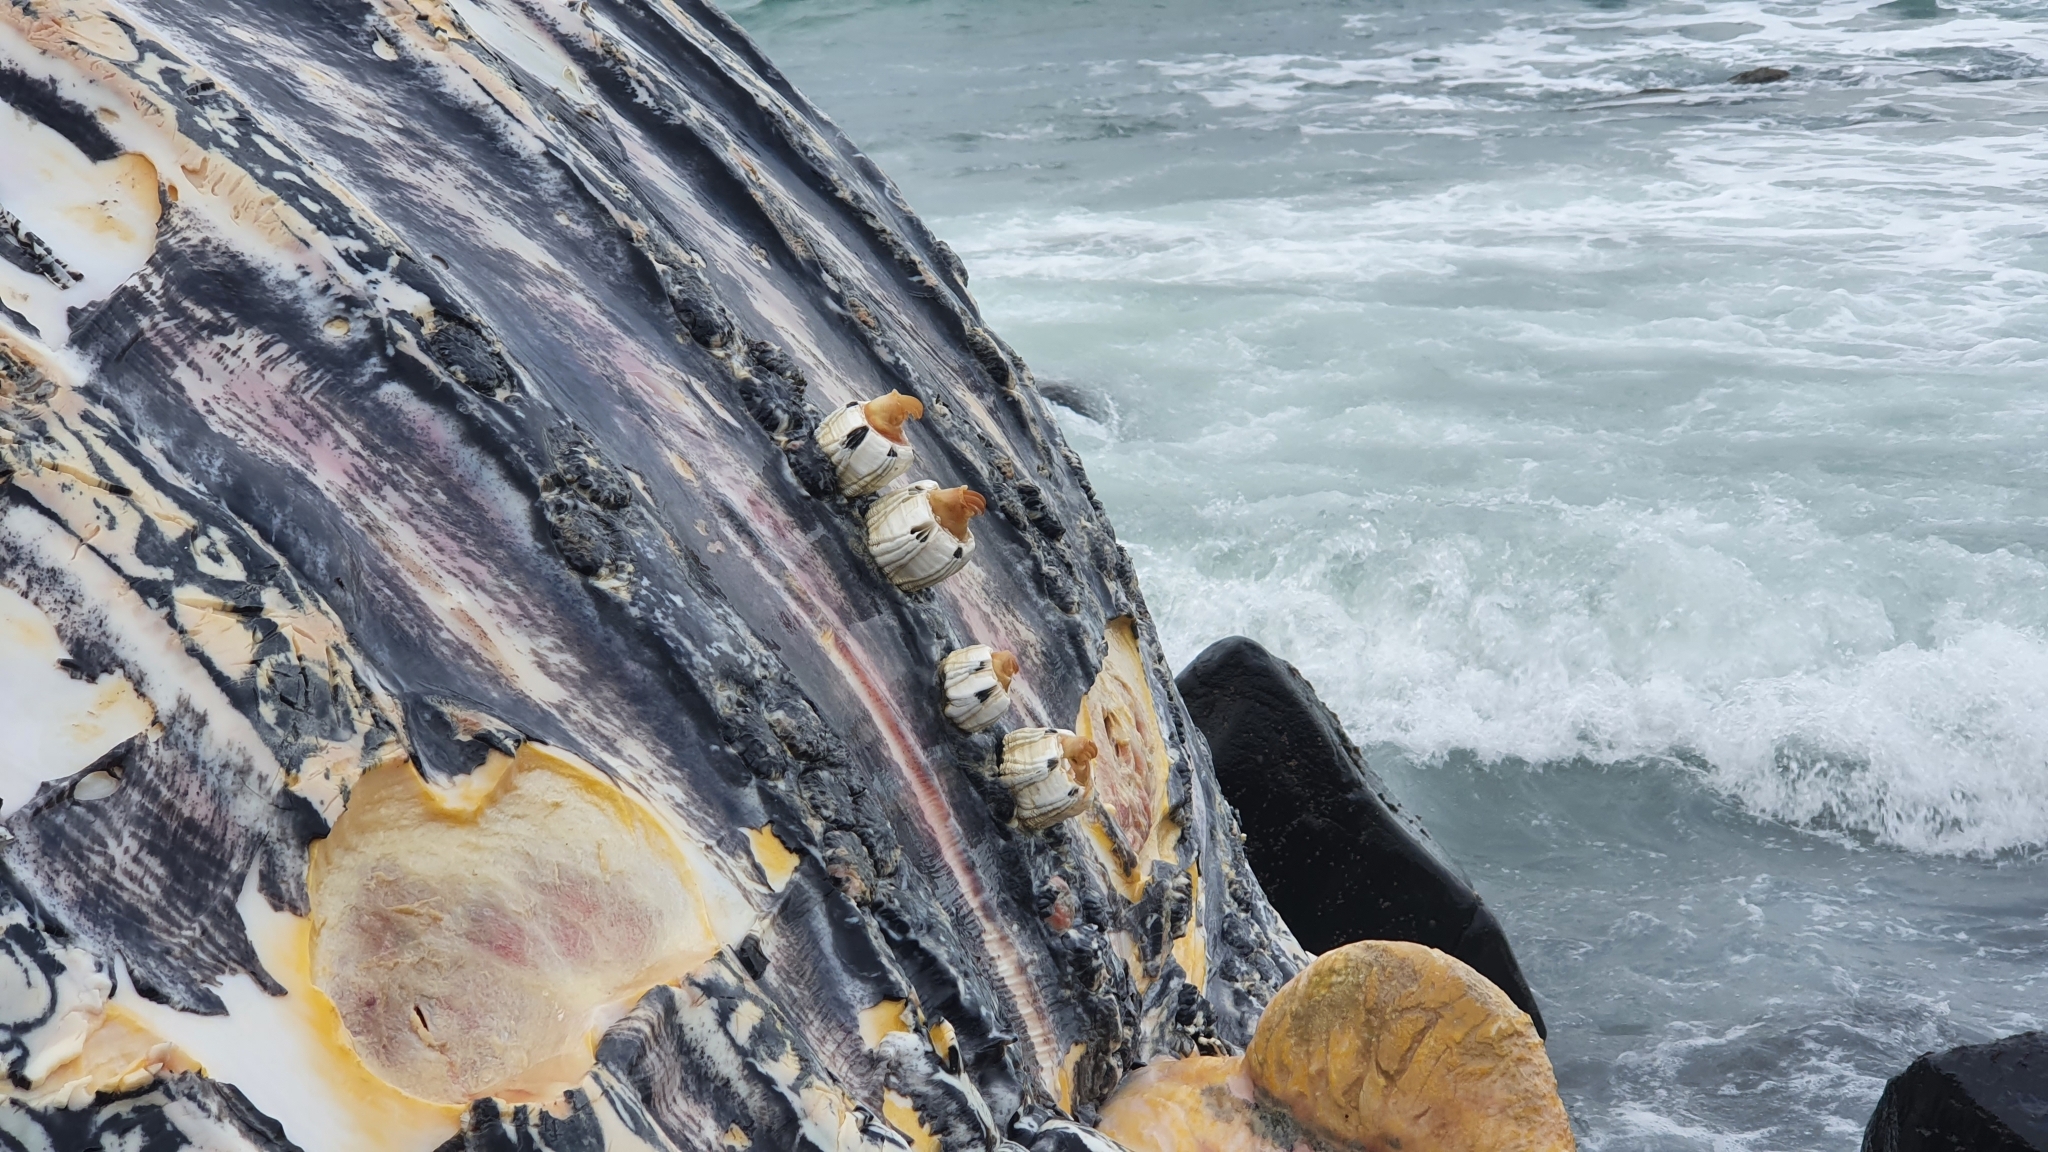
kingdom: Animalia
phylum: Arthropoda
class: Maxillopoda
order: Sessilia
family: Coronulidae
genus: Coronula
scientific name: Coronula diadema
